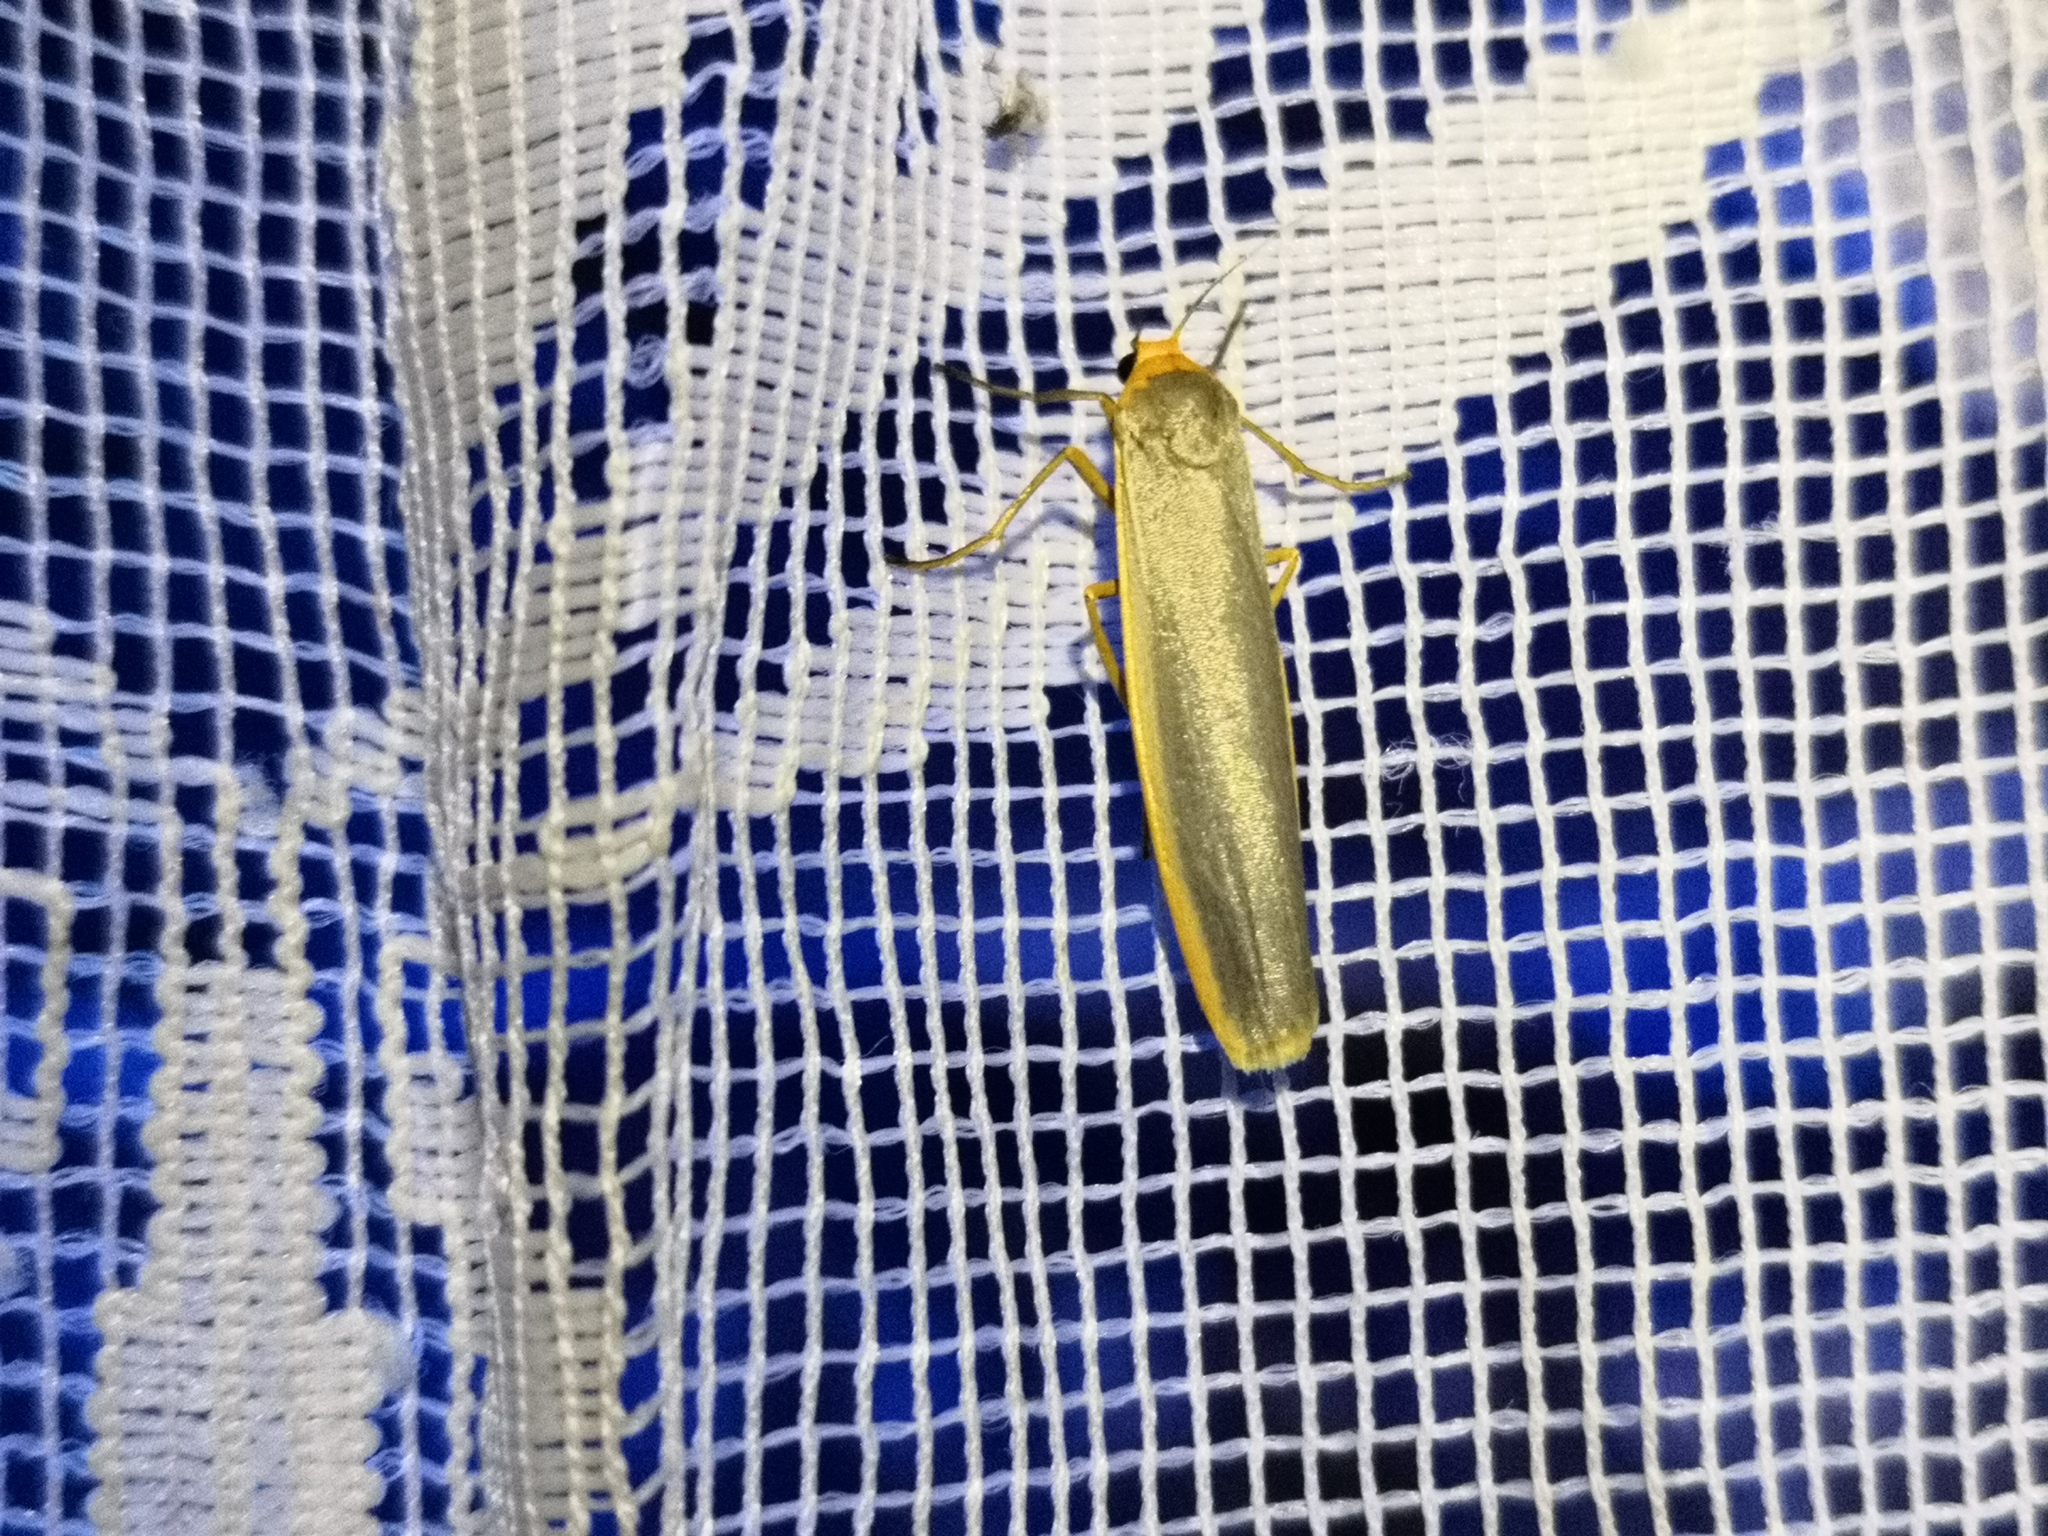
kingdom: Animalia
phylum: Arthropoda
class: Insecta
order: Lepidoptera
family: Erebidae
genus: Manulea
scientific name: Manulea complana
